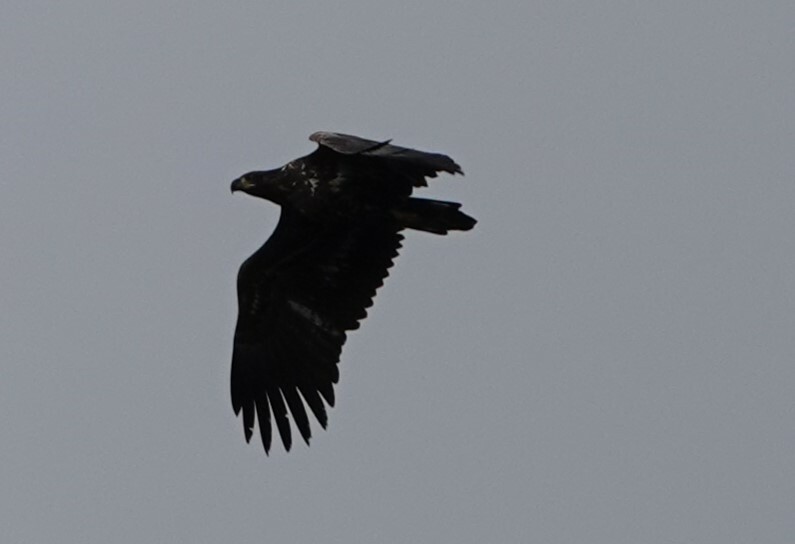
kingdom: Animalia
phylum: Chordata
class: Aves
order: Accipitriformes
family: Accipitridae
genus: Haliaeetus
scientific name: Haliaeetus albicilla
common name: White-tailed eagle
